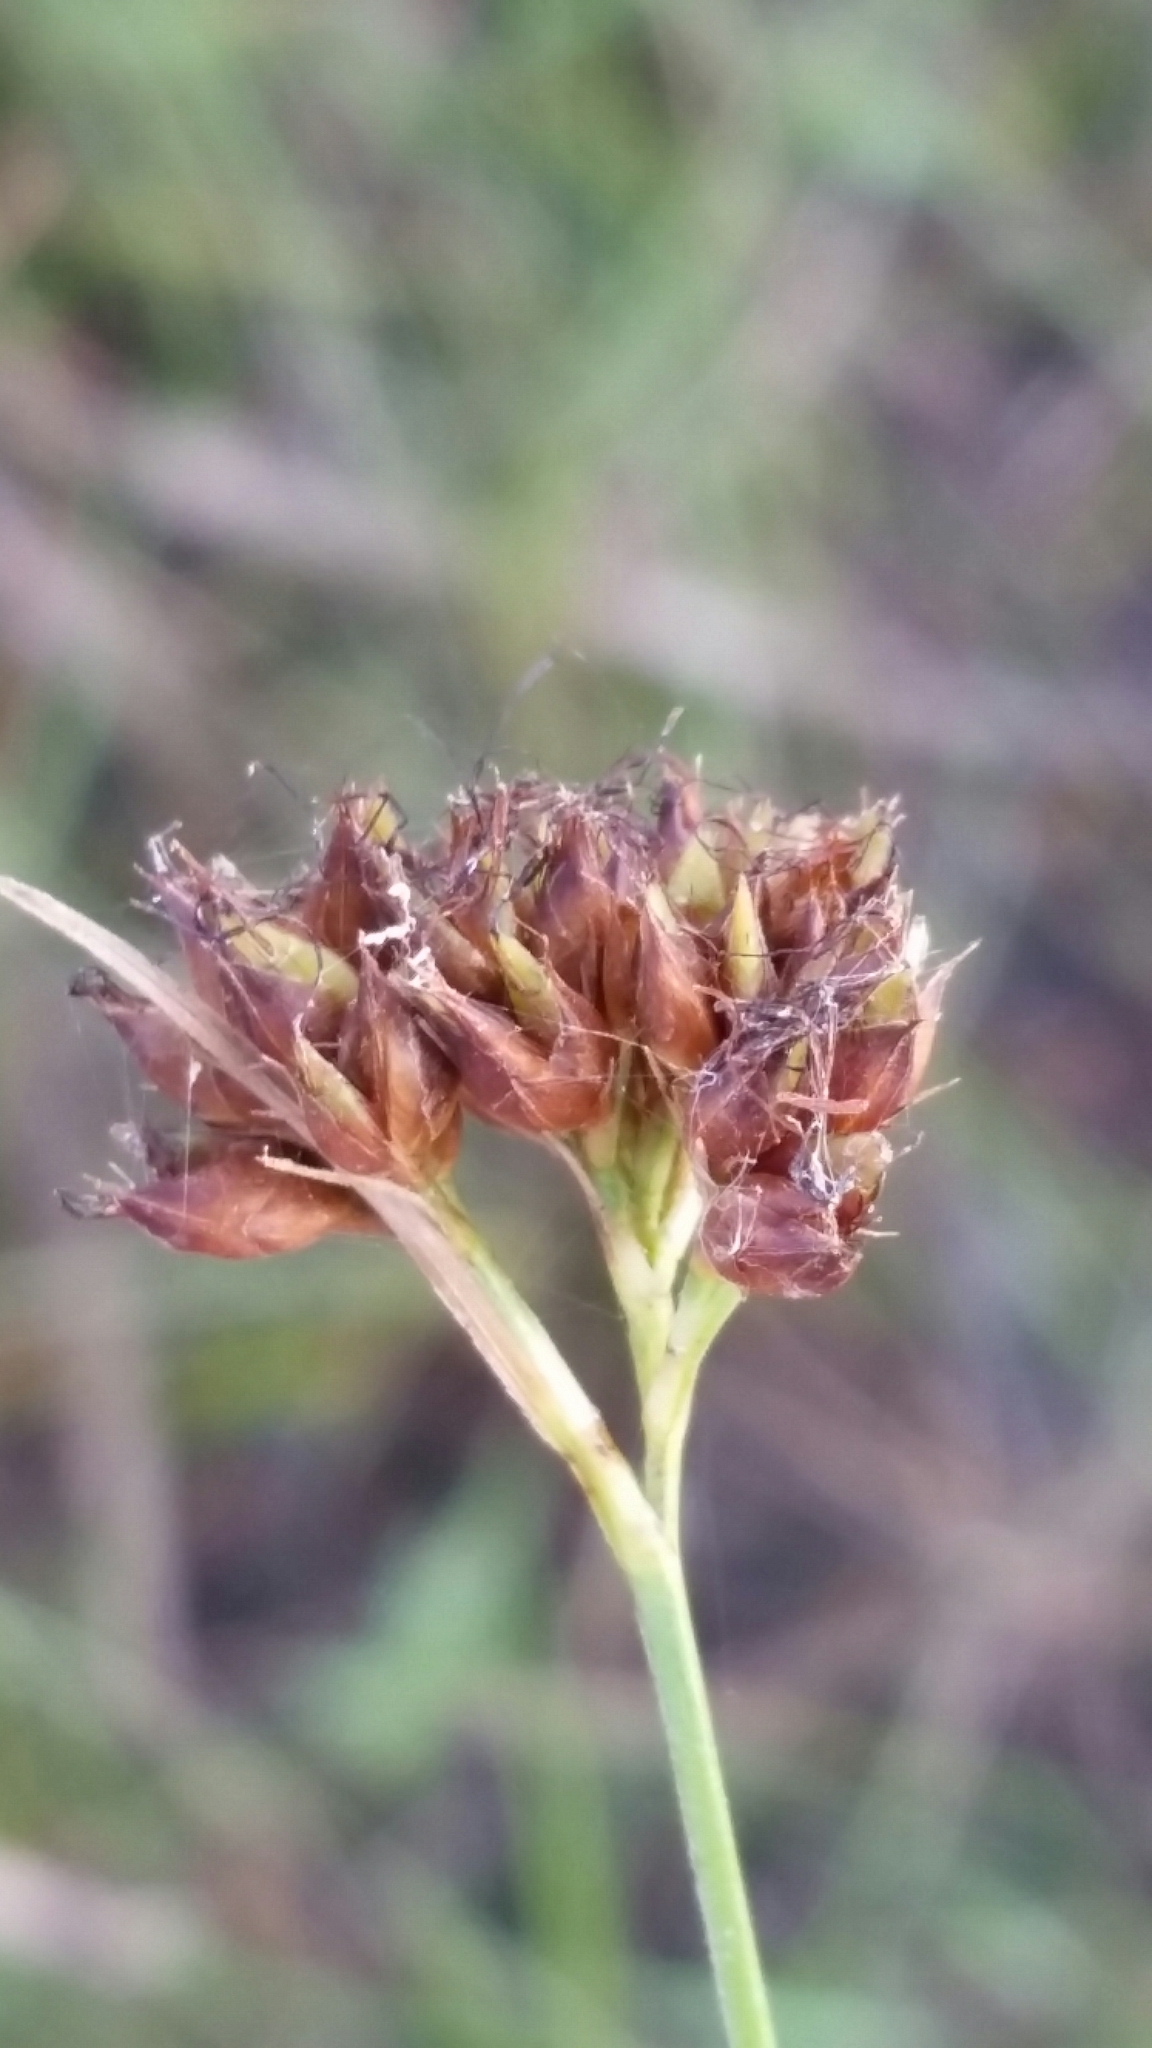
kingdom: Plantae
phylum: Tracheophyta
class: Liliopsida
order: Poales
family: Cyperaceae
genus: Rhynchospora
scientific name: Rhynchospora baldwinii
